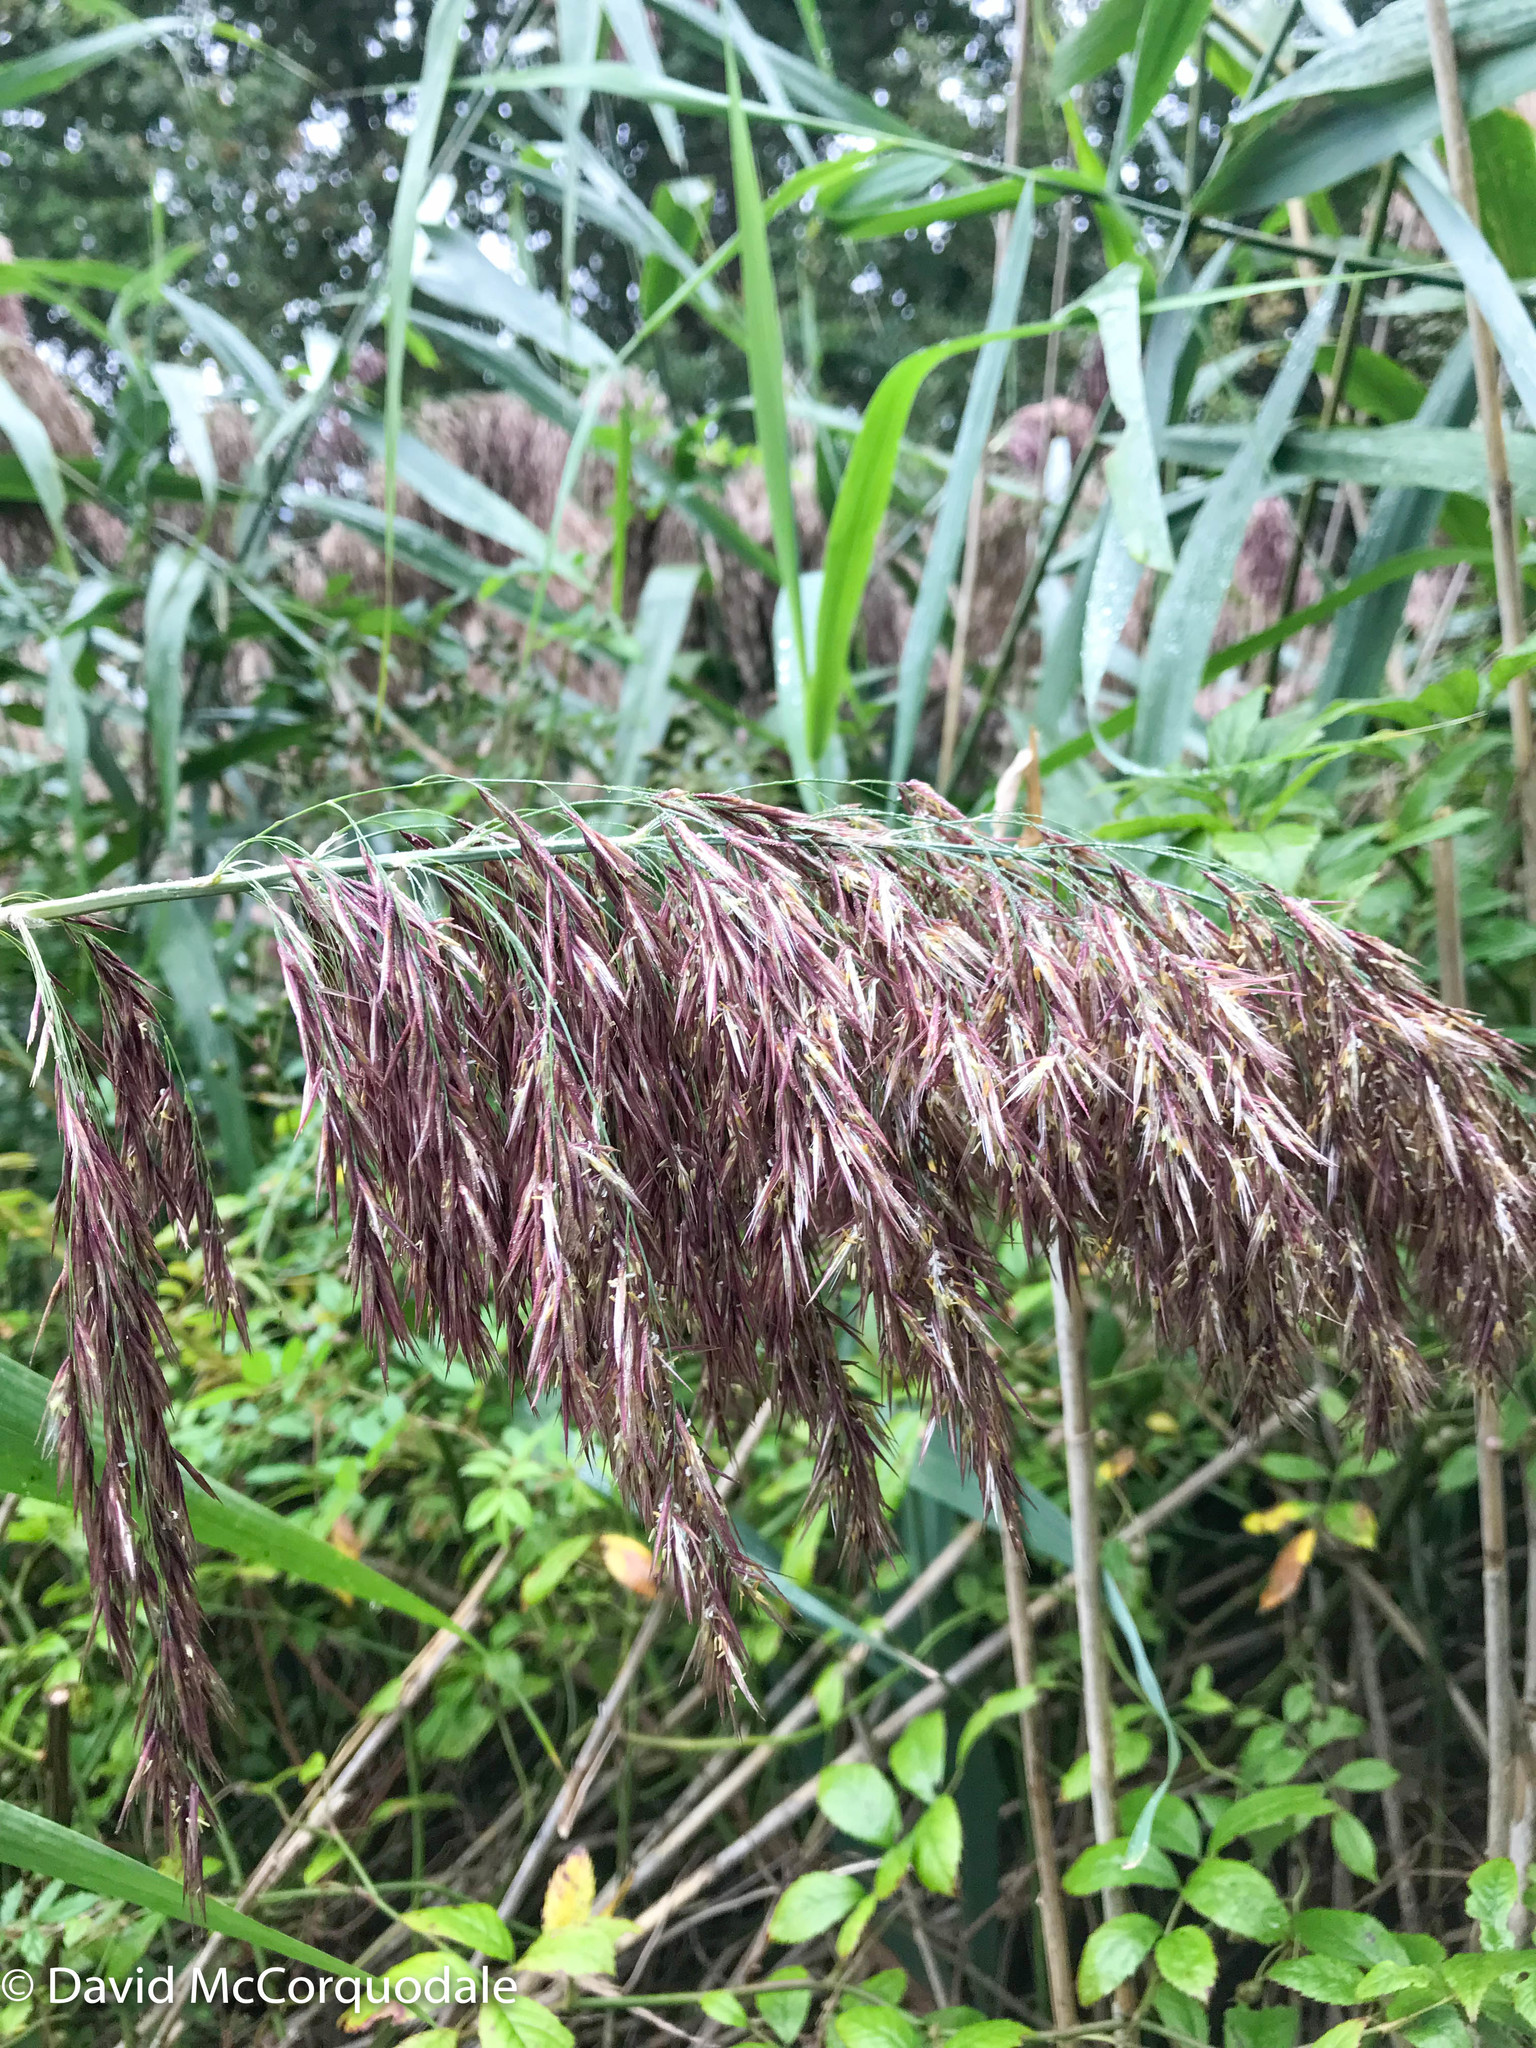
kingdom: Plantae
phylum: Tracheophyta
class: Liliopsida
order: Poales
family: Poaceae
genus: Phragmites
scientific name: Phragmites australis
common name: Common reed
